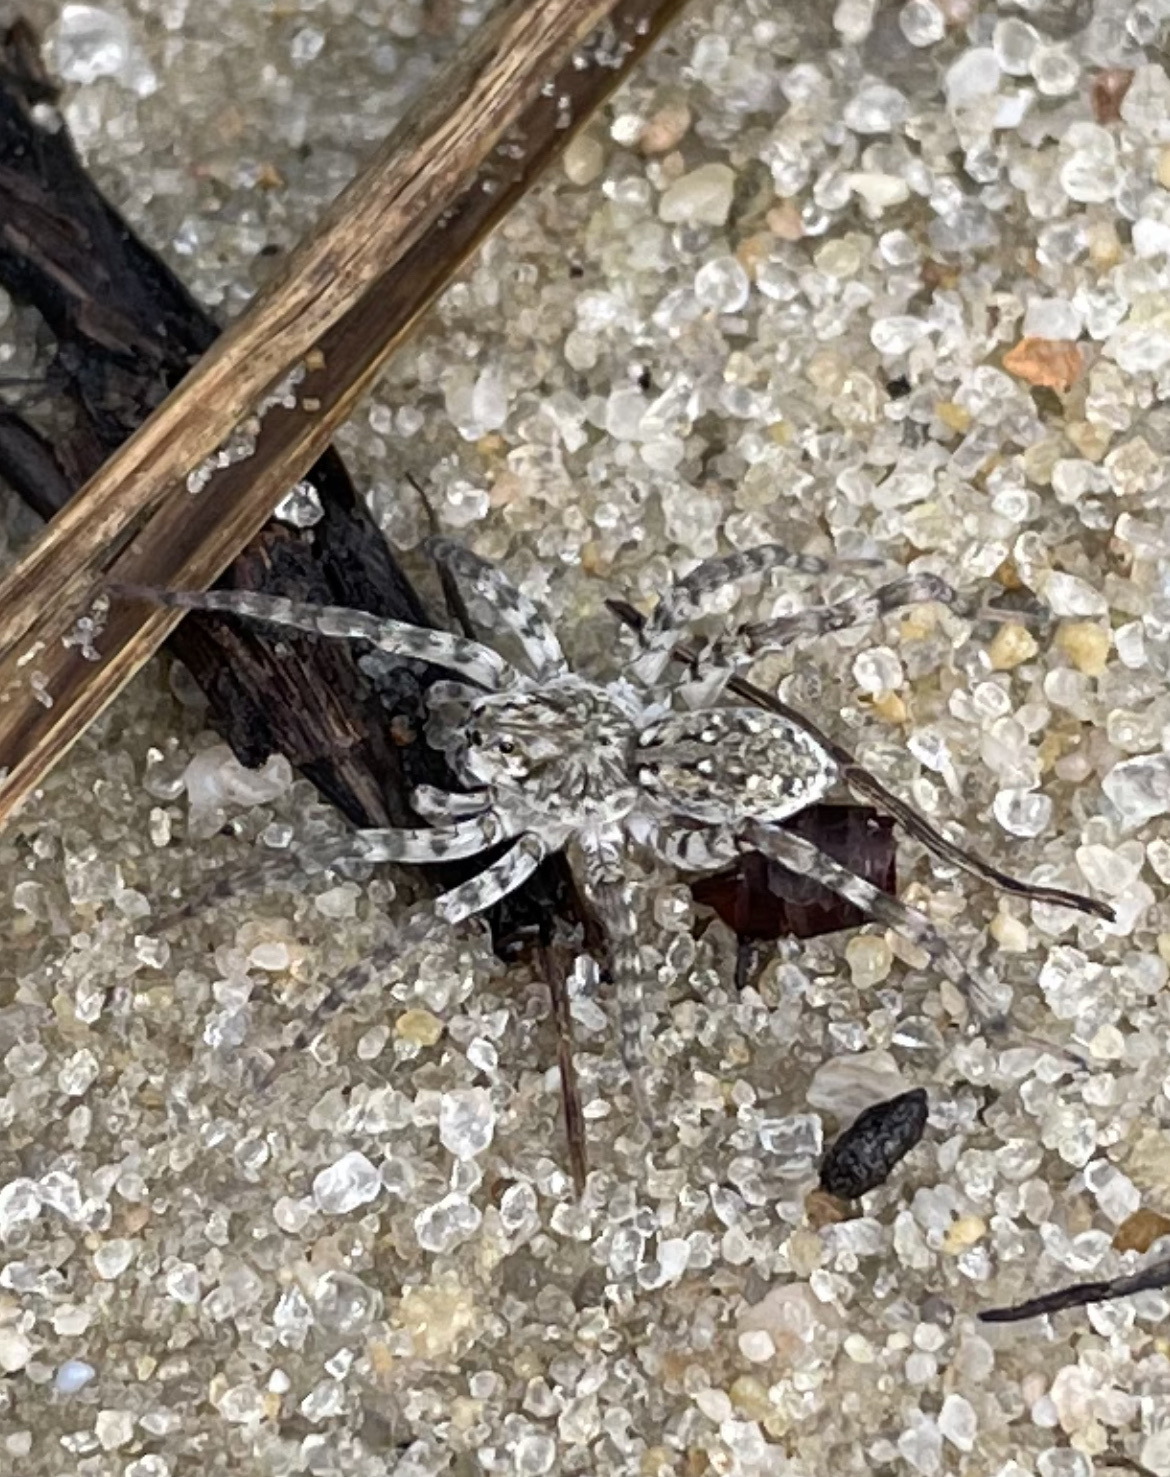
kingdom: Animalia
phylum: Arthropoda
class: Arachnida
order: Araneae
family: Lycosidae
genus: Arctosa
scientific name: Arctosa littoralis
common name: Wolf spiders
